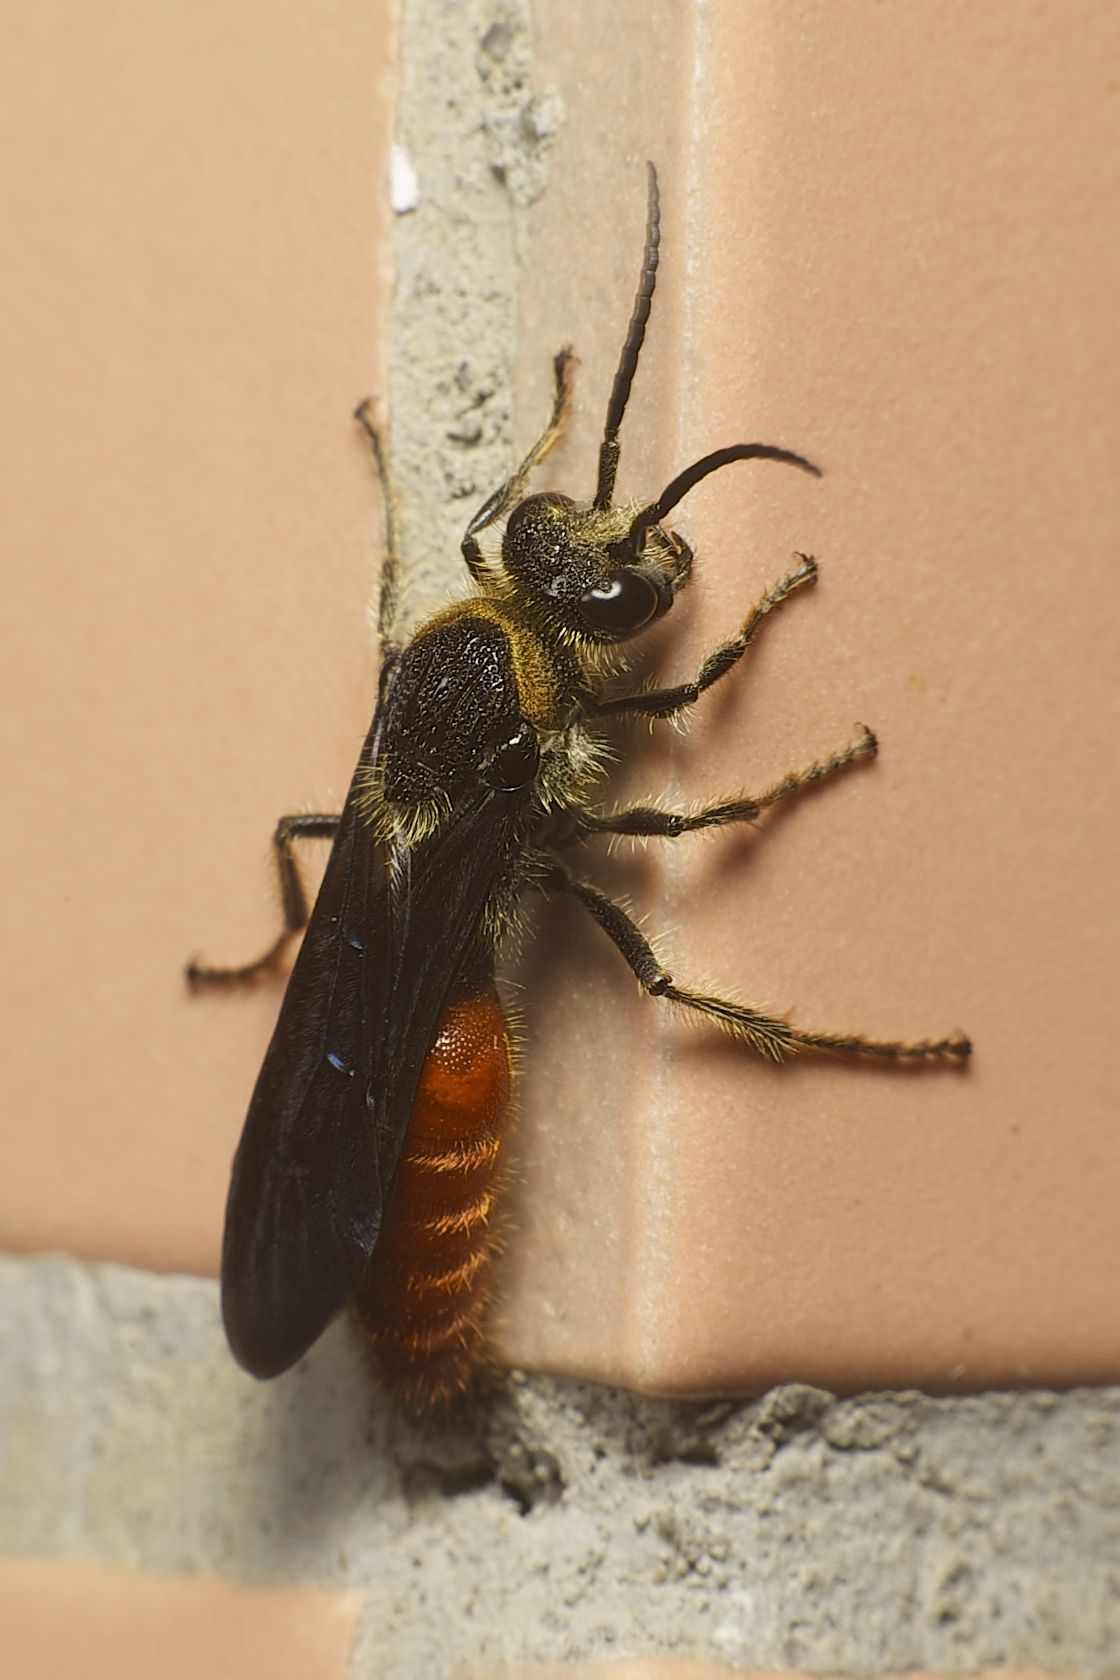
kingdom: Animalia
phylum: Arthropoda
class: Insecta
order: Hymenoptera
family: Mutillidae
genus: Mutilla
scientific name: Mutilla oculata
